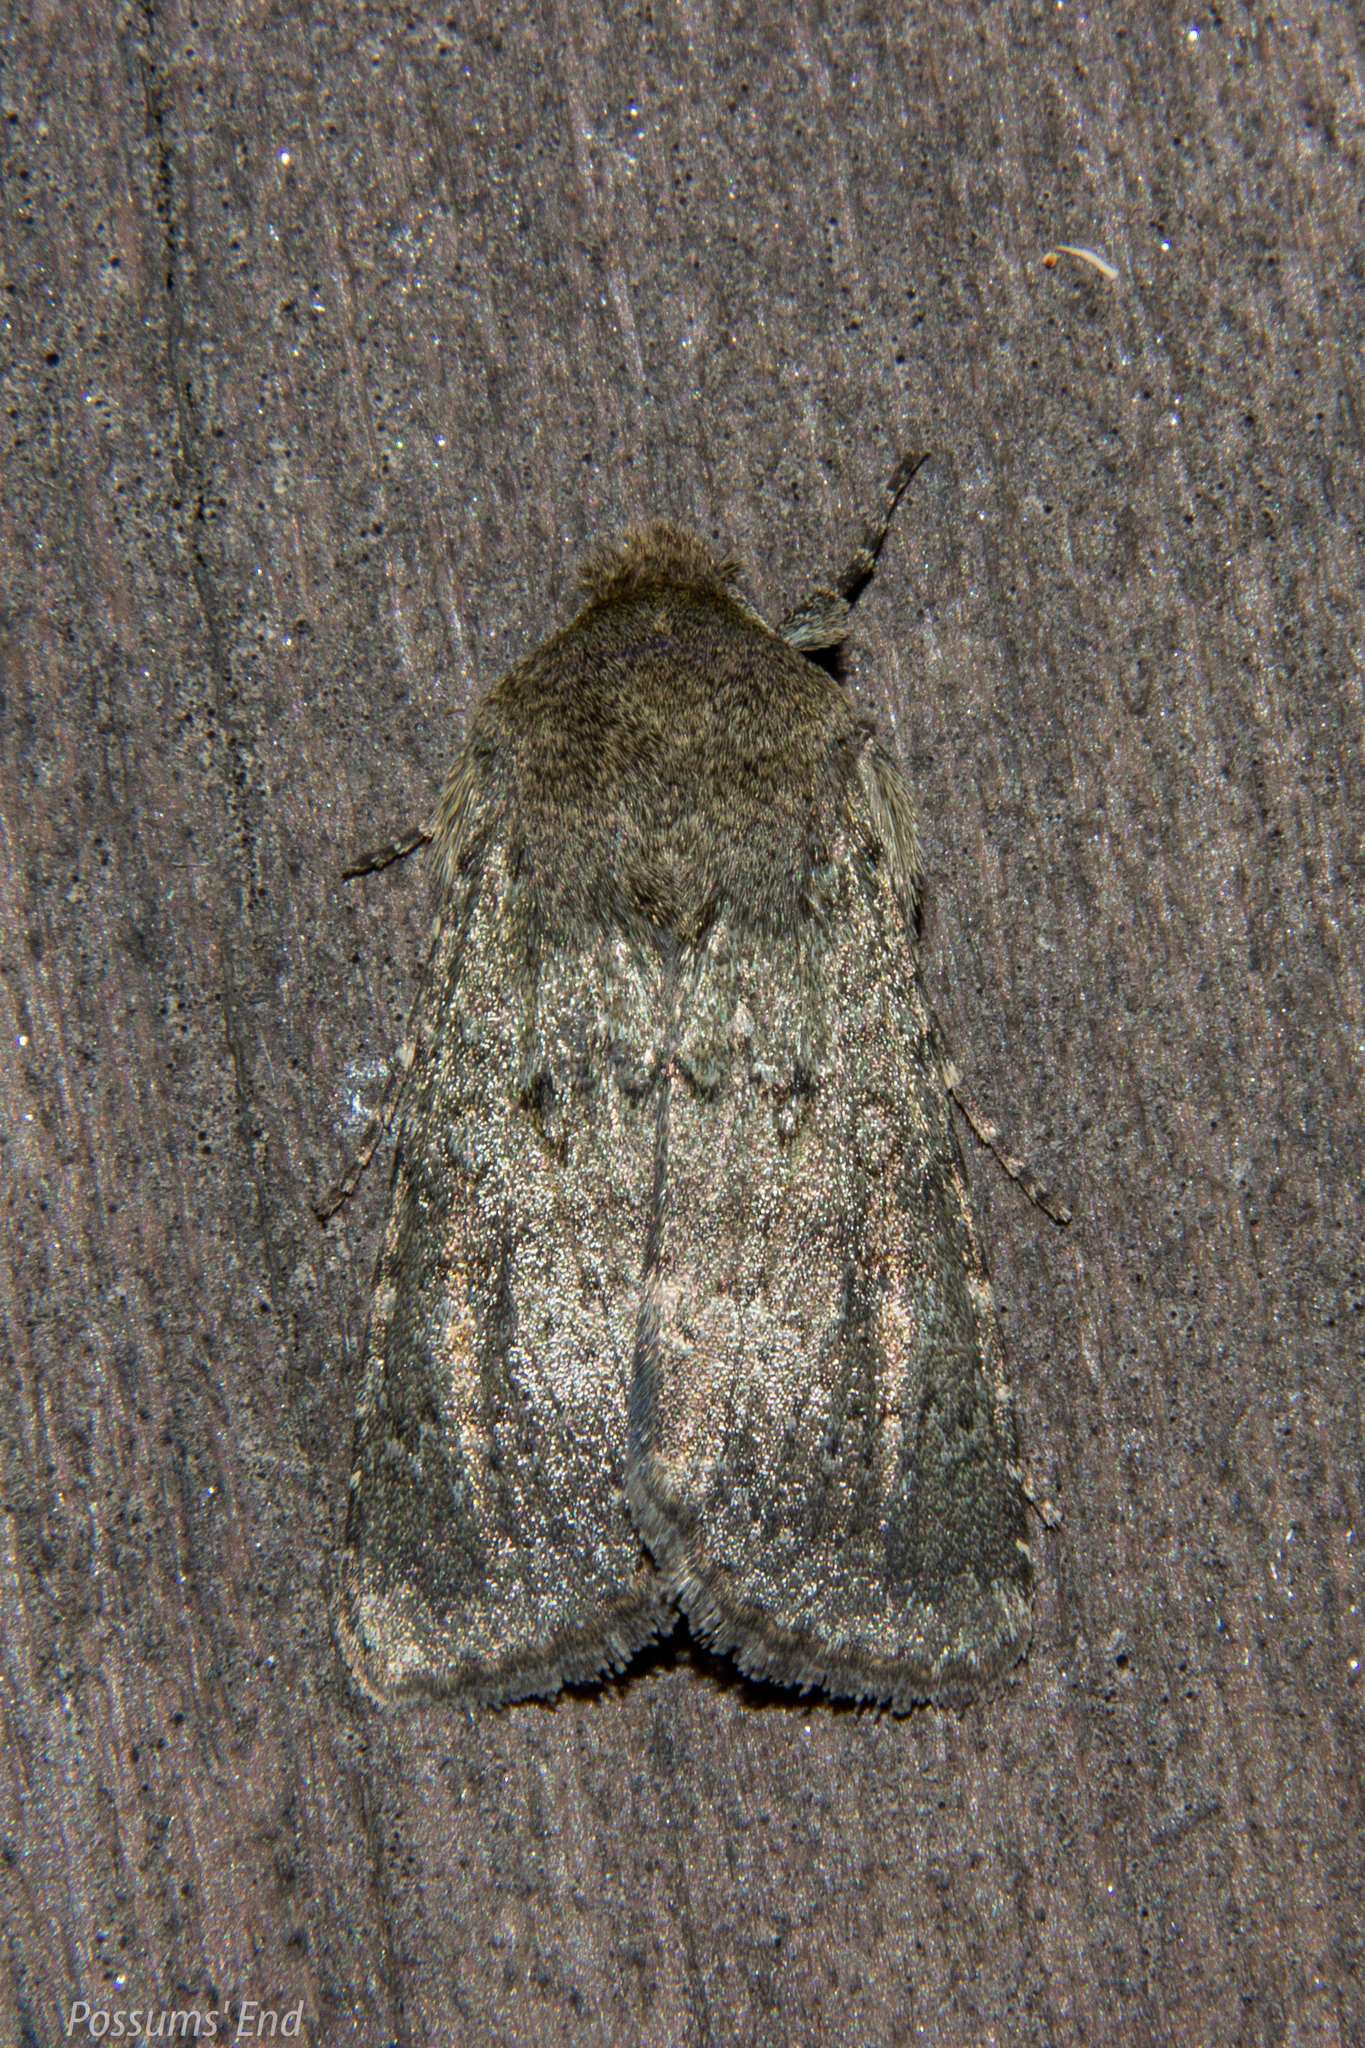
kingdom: Animalia
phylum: Arthropoda
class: Insecta
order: Lepidoptera
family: Noctuidae
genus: Ichneutica
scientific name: Ichneutica moderata
